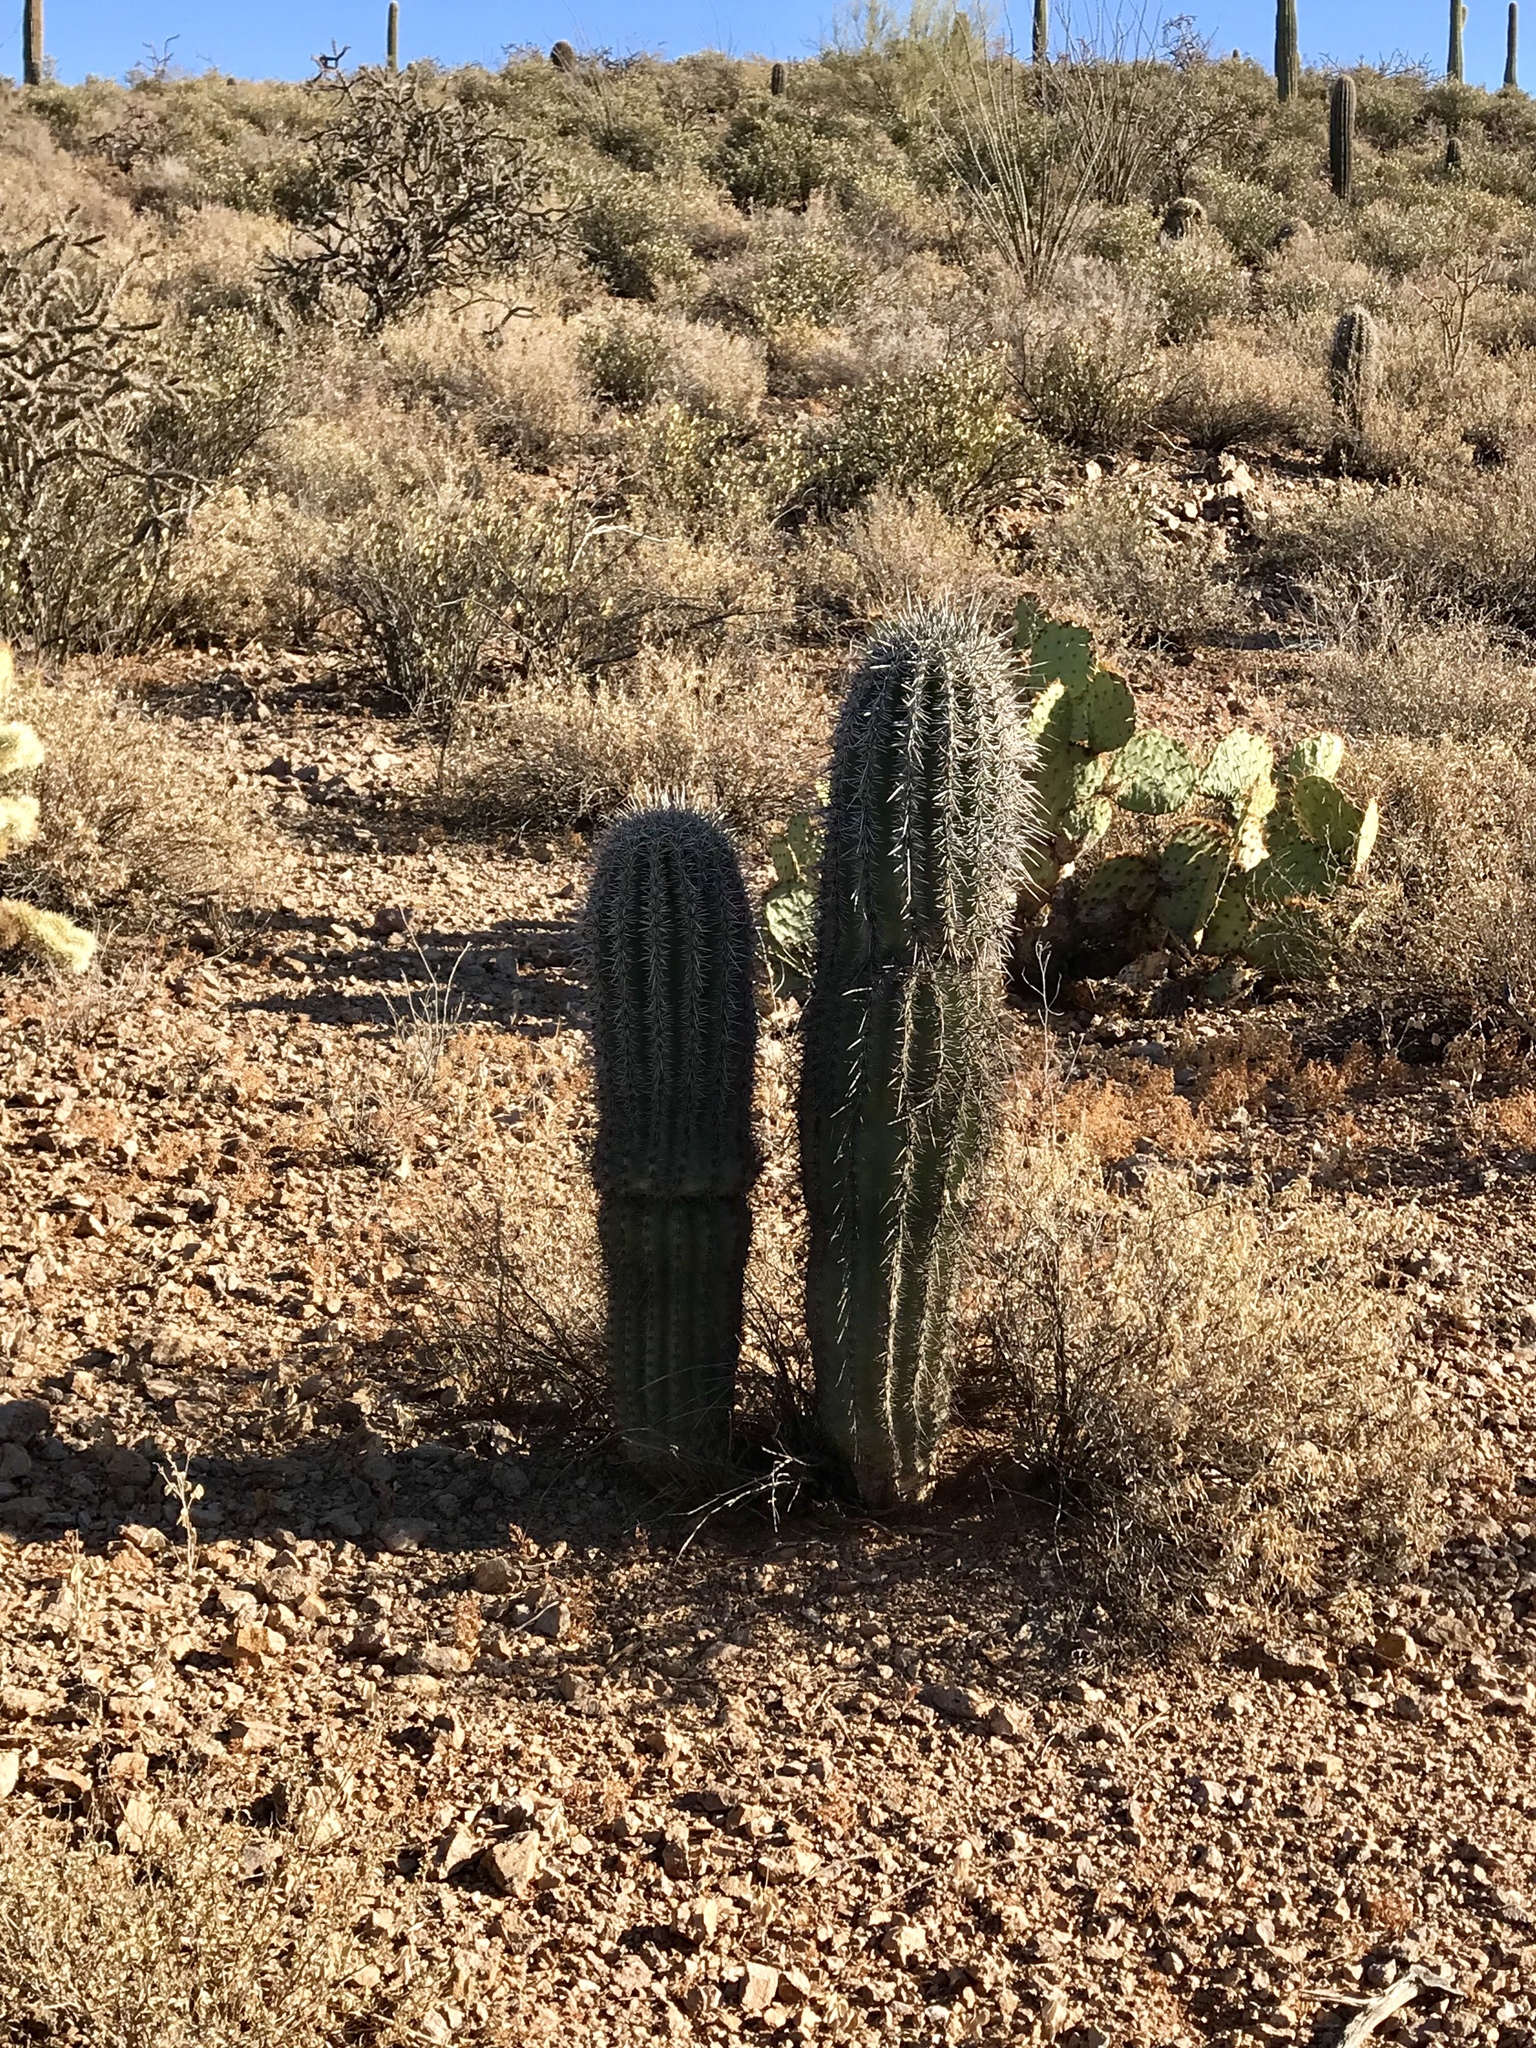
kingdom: Plantae
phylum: Tracheophyta
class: Magnoliopsida
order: Caryophyllales
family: Cactaceae
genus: Carnegiea
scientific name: Carnegiea gigantea
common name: Saguaro
